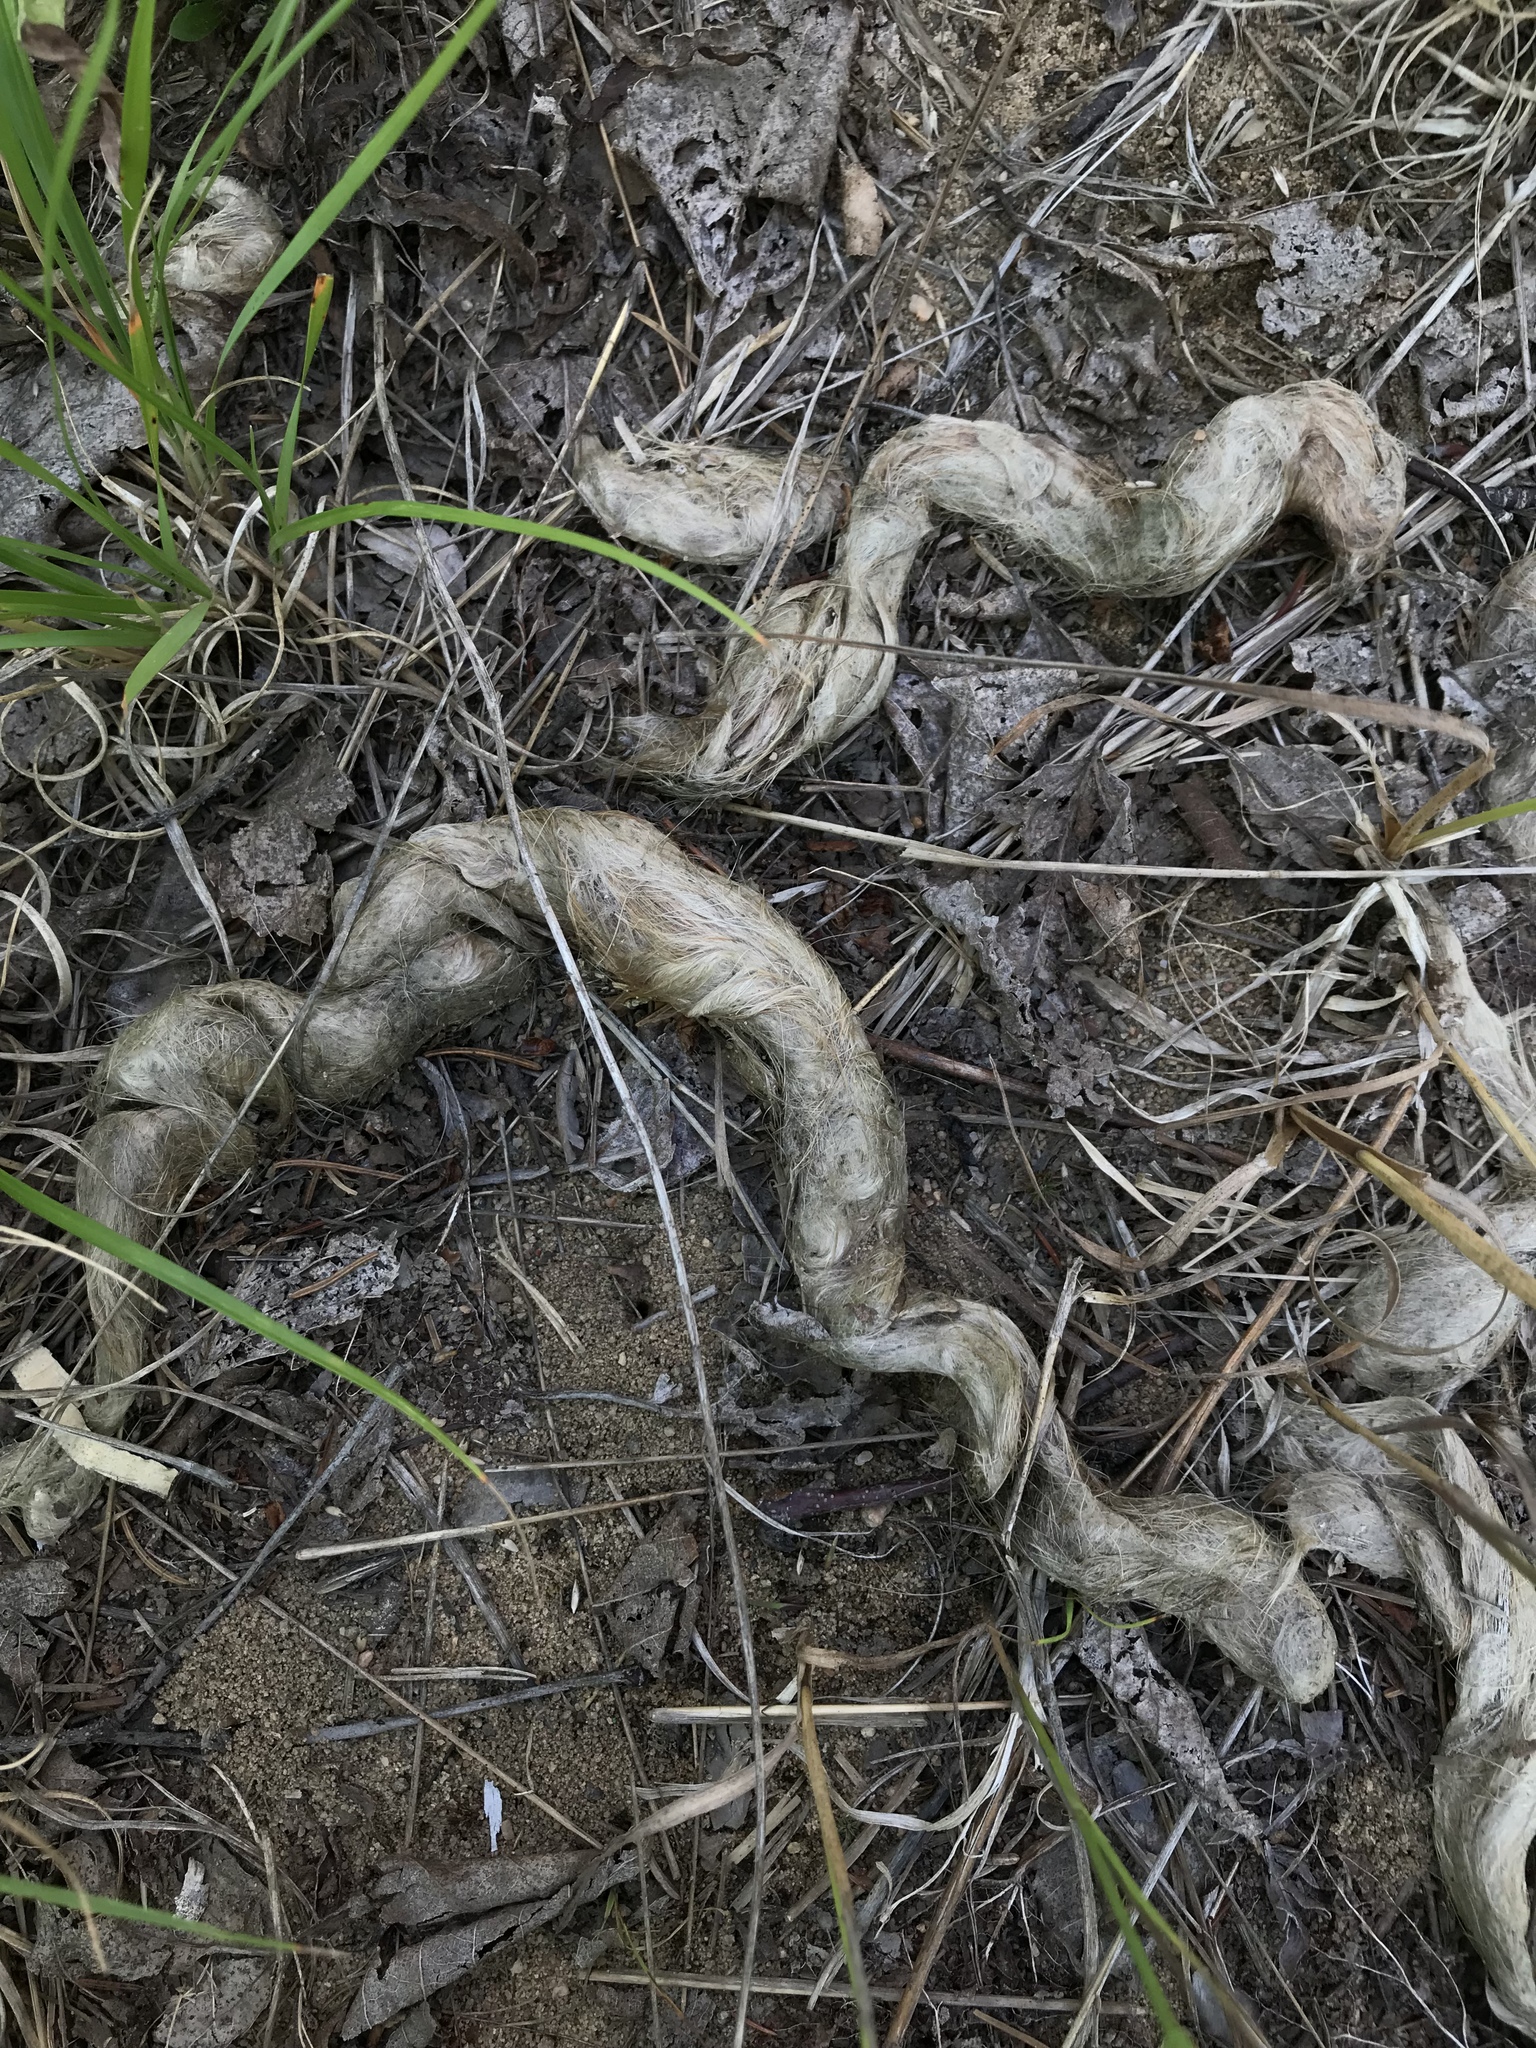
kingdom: Animalia
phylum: Chordata
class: Mammalia
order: Carnivora
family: Canidae
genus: Canis
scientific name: Canis lycaon
